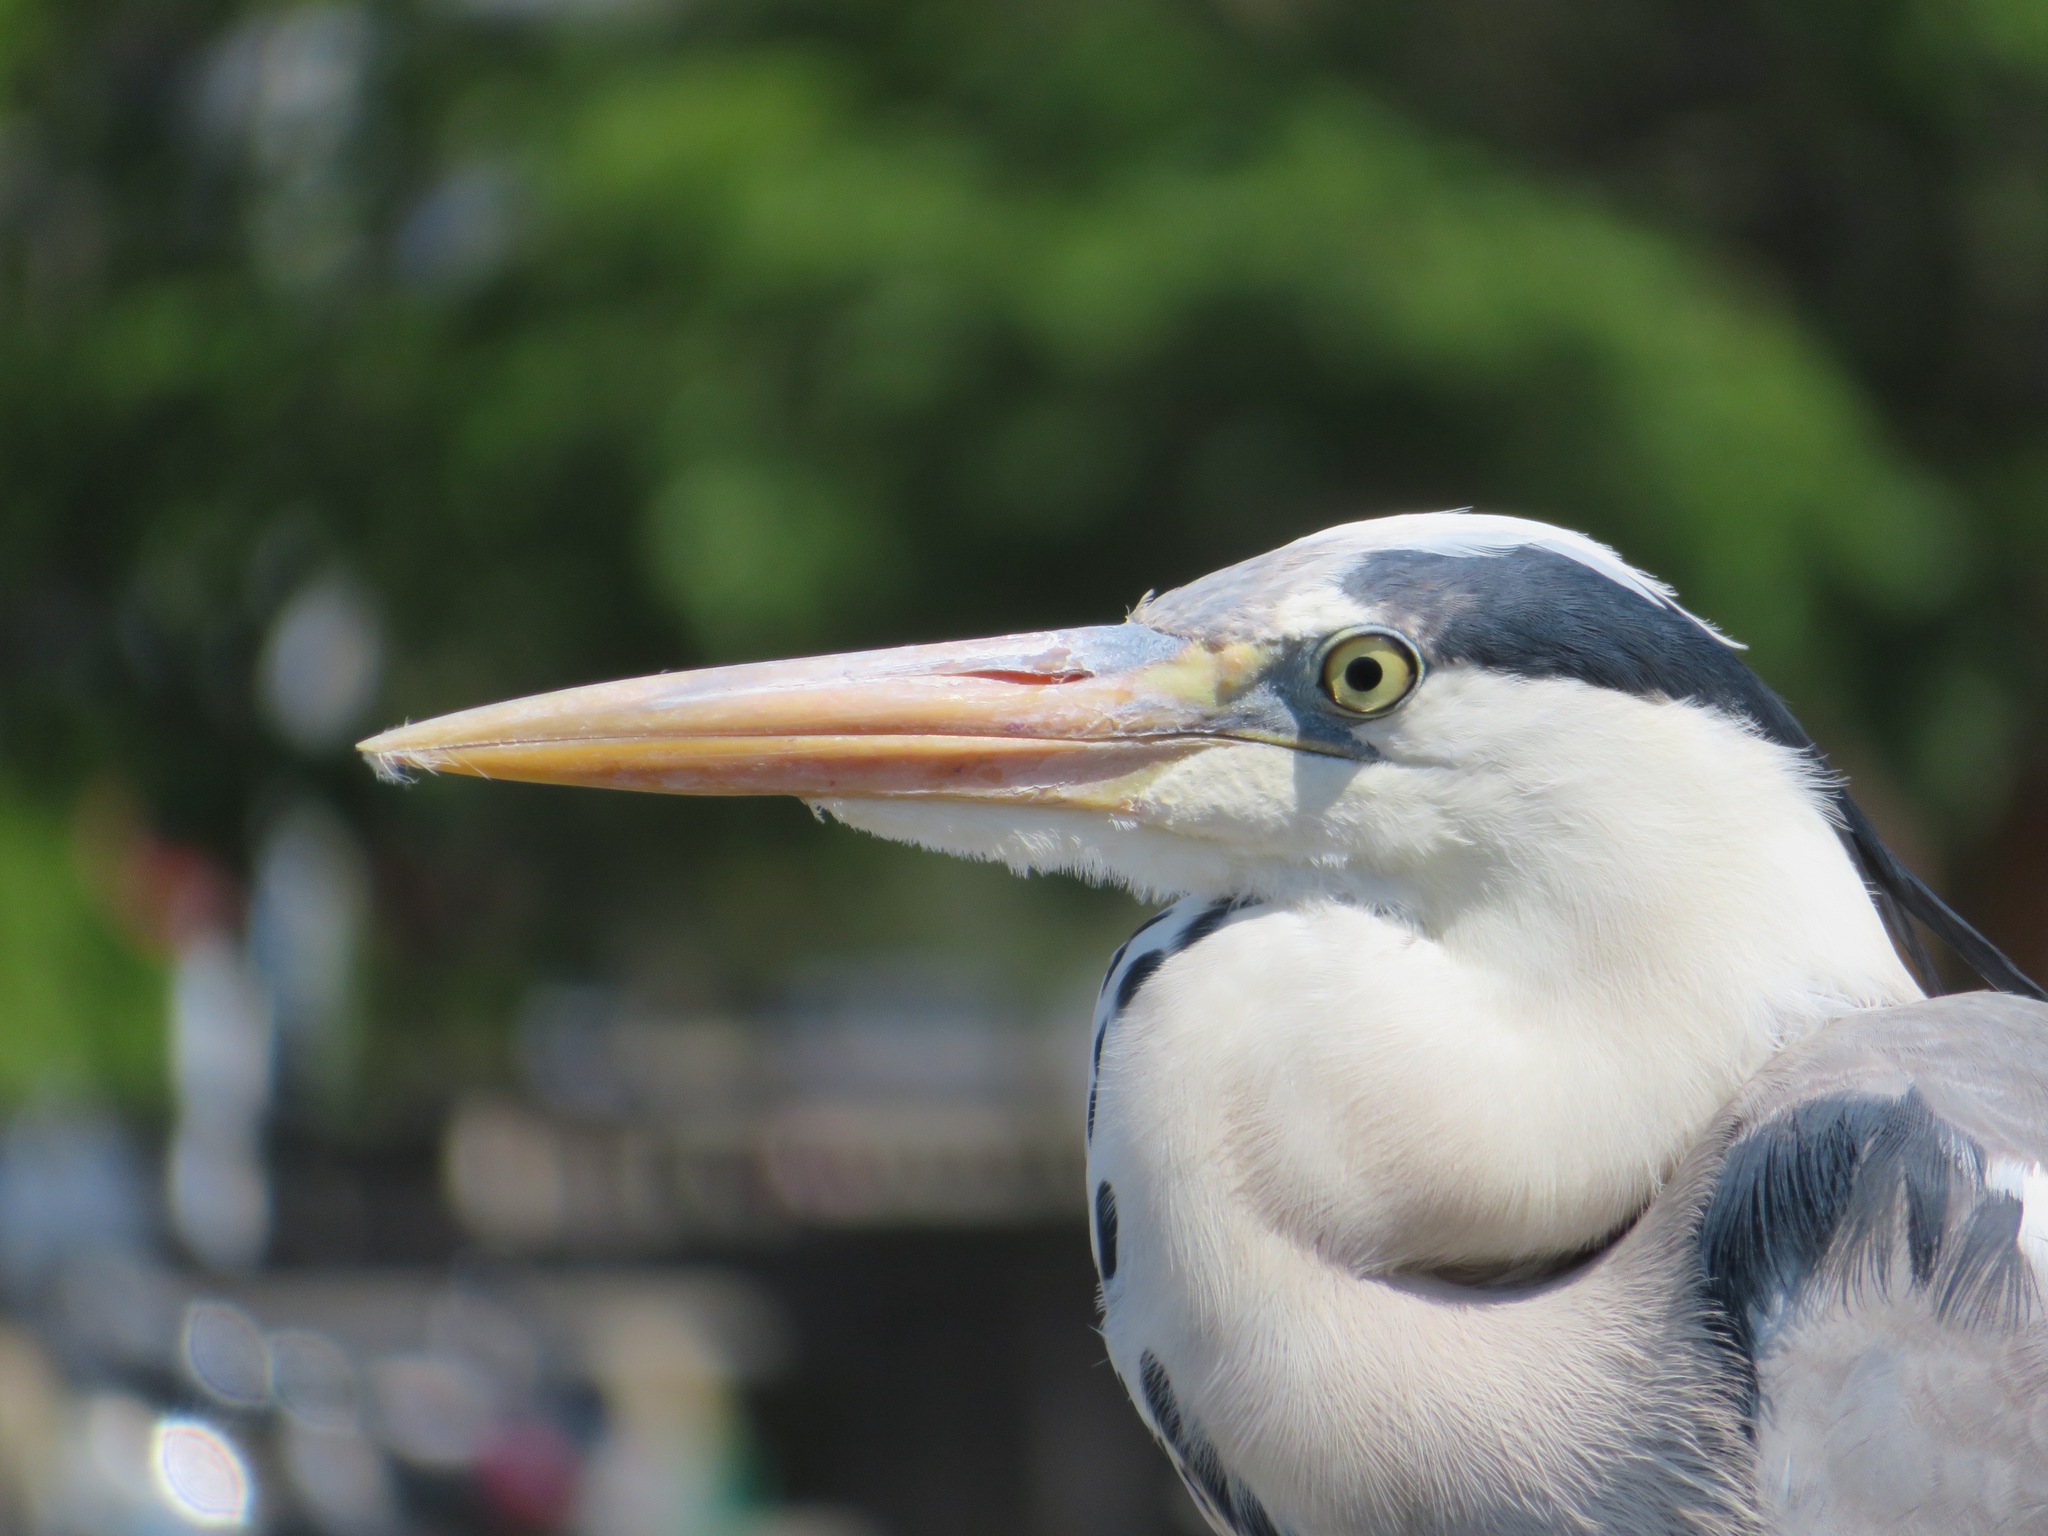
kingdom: Animalia
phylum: Chordata
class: Aves
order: Pelecaniformes
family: Ardeidae
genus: Ardea
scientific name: Ardea cinerea
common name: Grey heron
